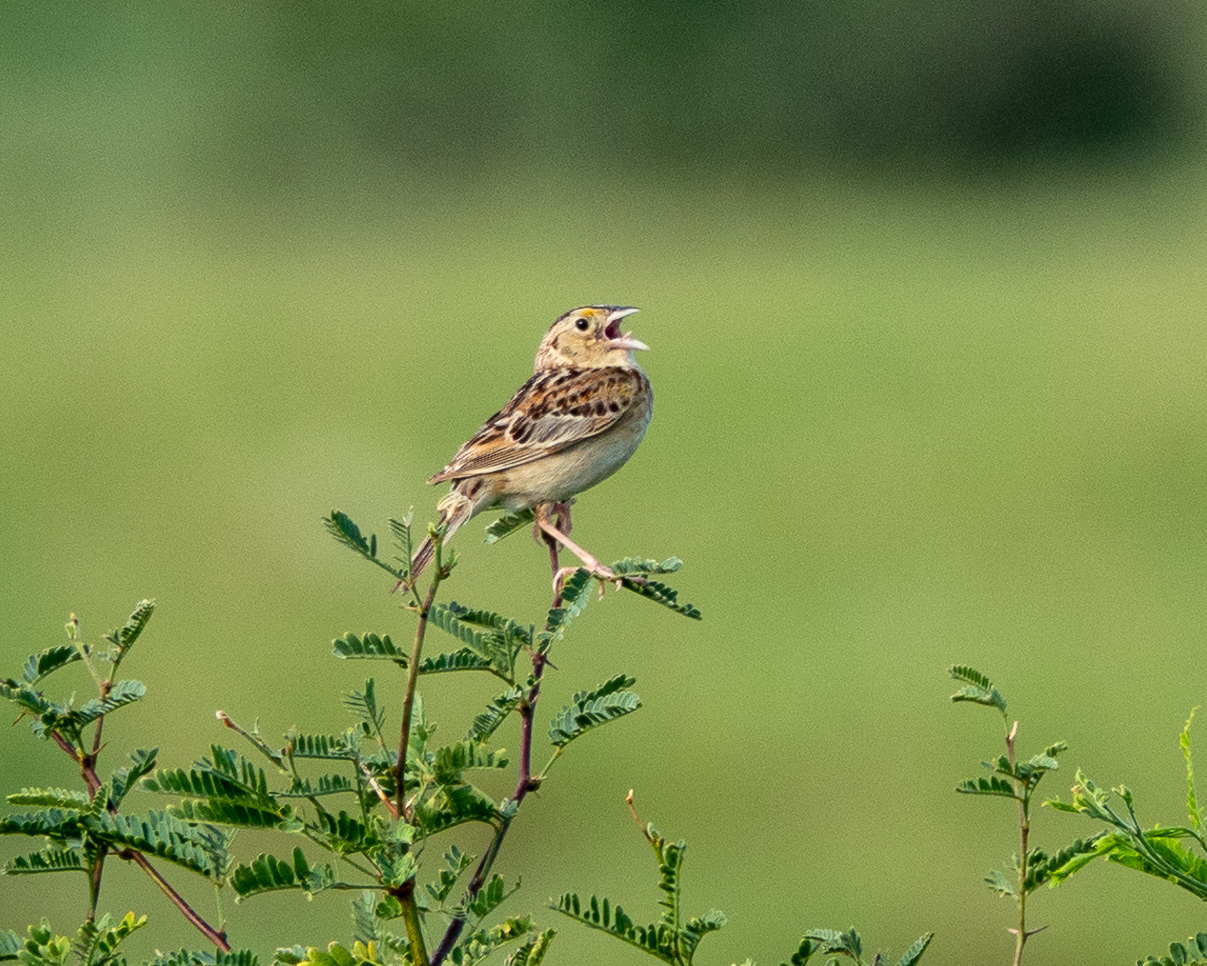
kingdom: Animalia
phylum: Chordata
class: Aves
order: Passeriformes
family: Passerellidae
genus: Ammodramus
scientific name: Ammodramus savannarum
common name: Grasshopper sparrow
